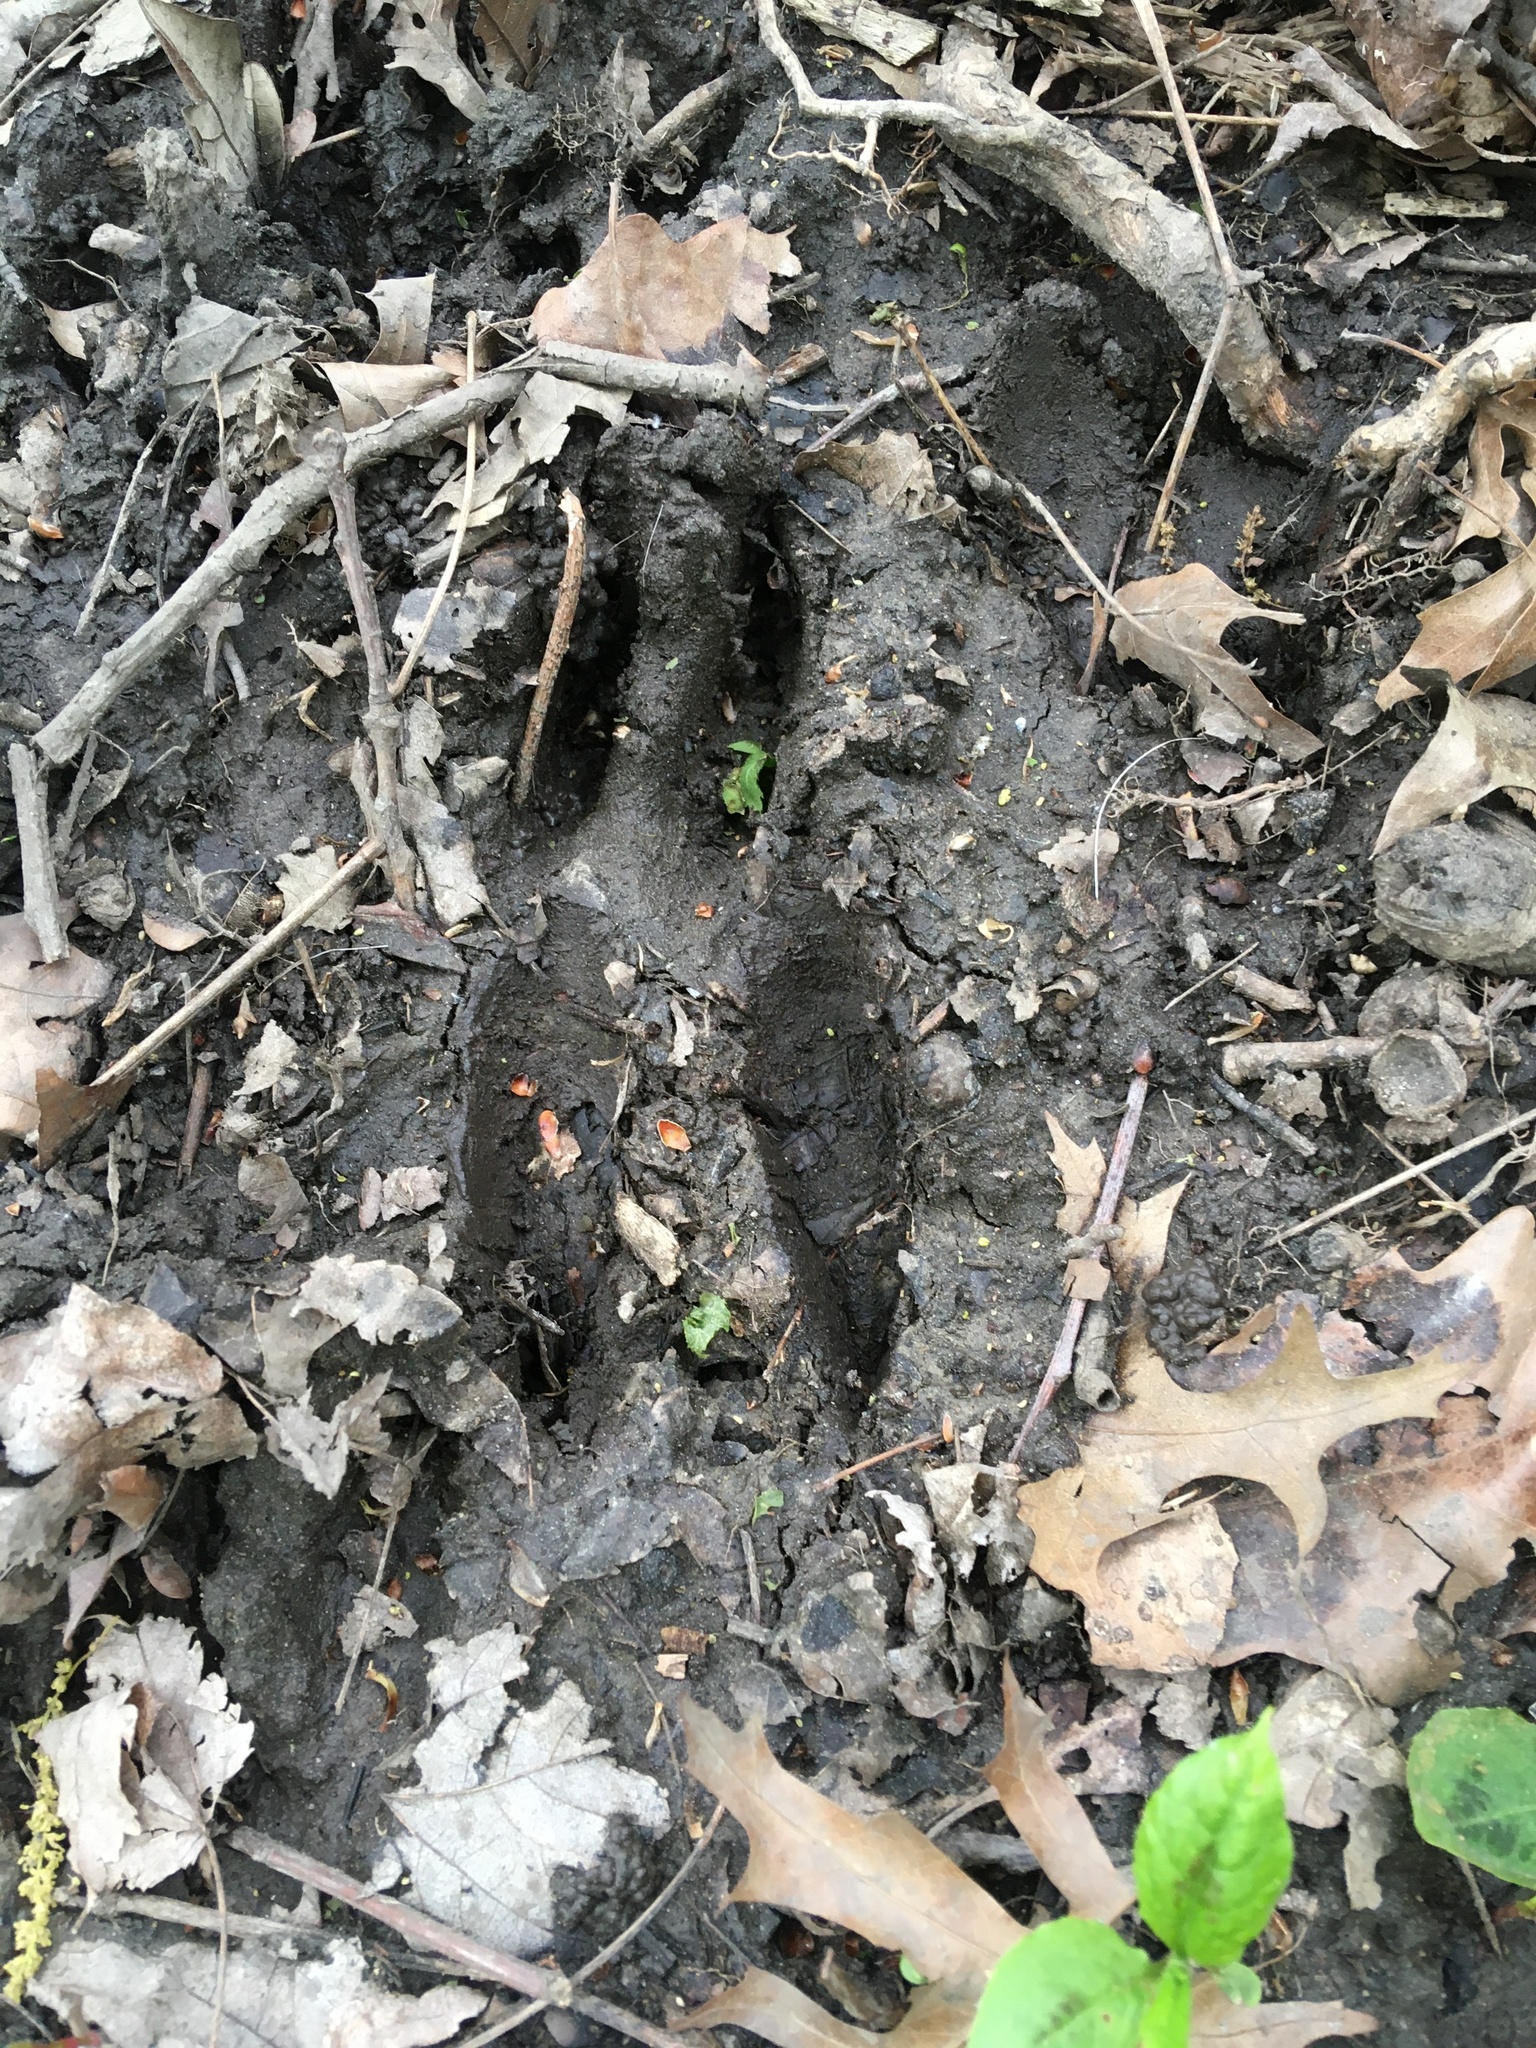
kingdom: Animalia
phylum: Chordata
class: Mammalia
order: Artiodactyla
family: Cervidae
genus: Odocoileus
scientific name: Odocoileus virginianus
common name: White-tailed deer
